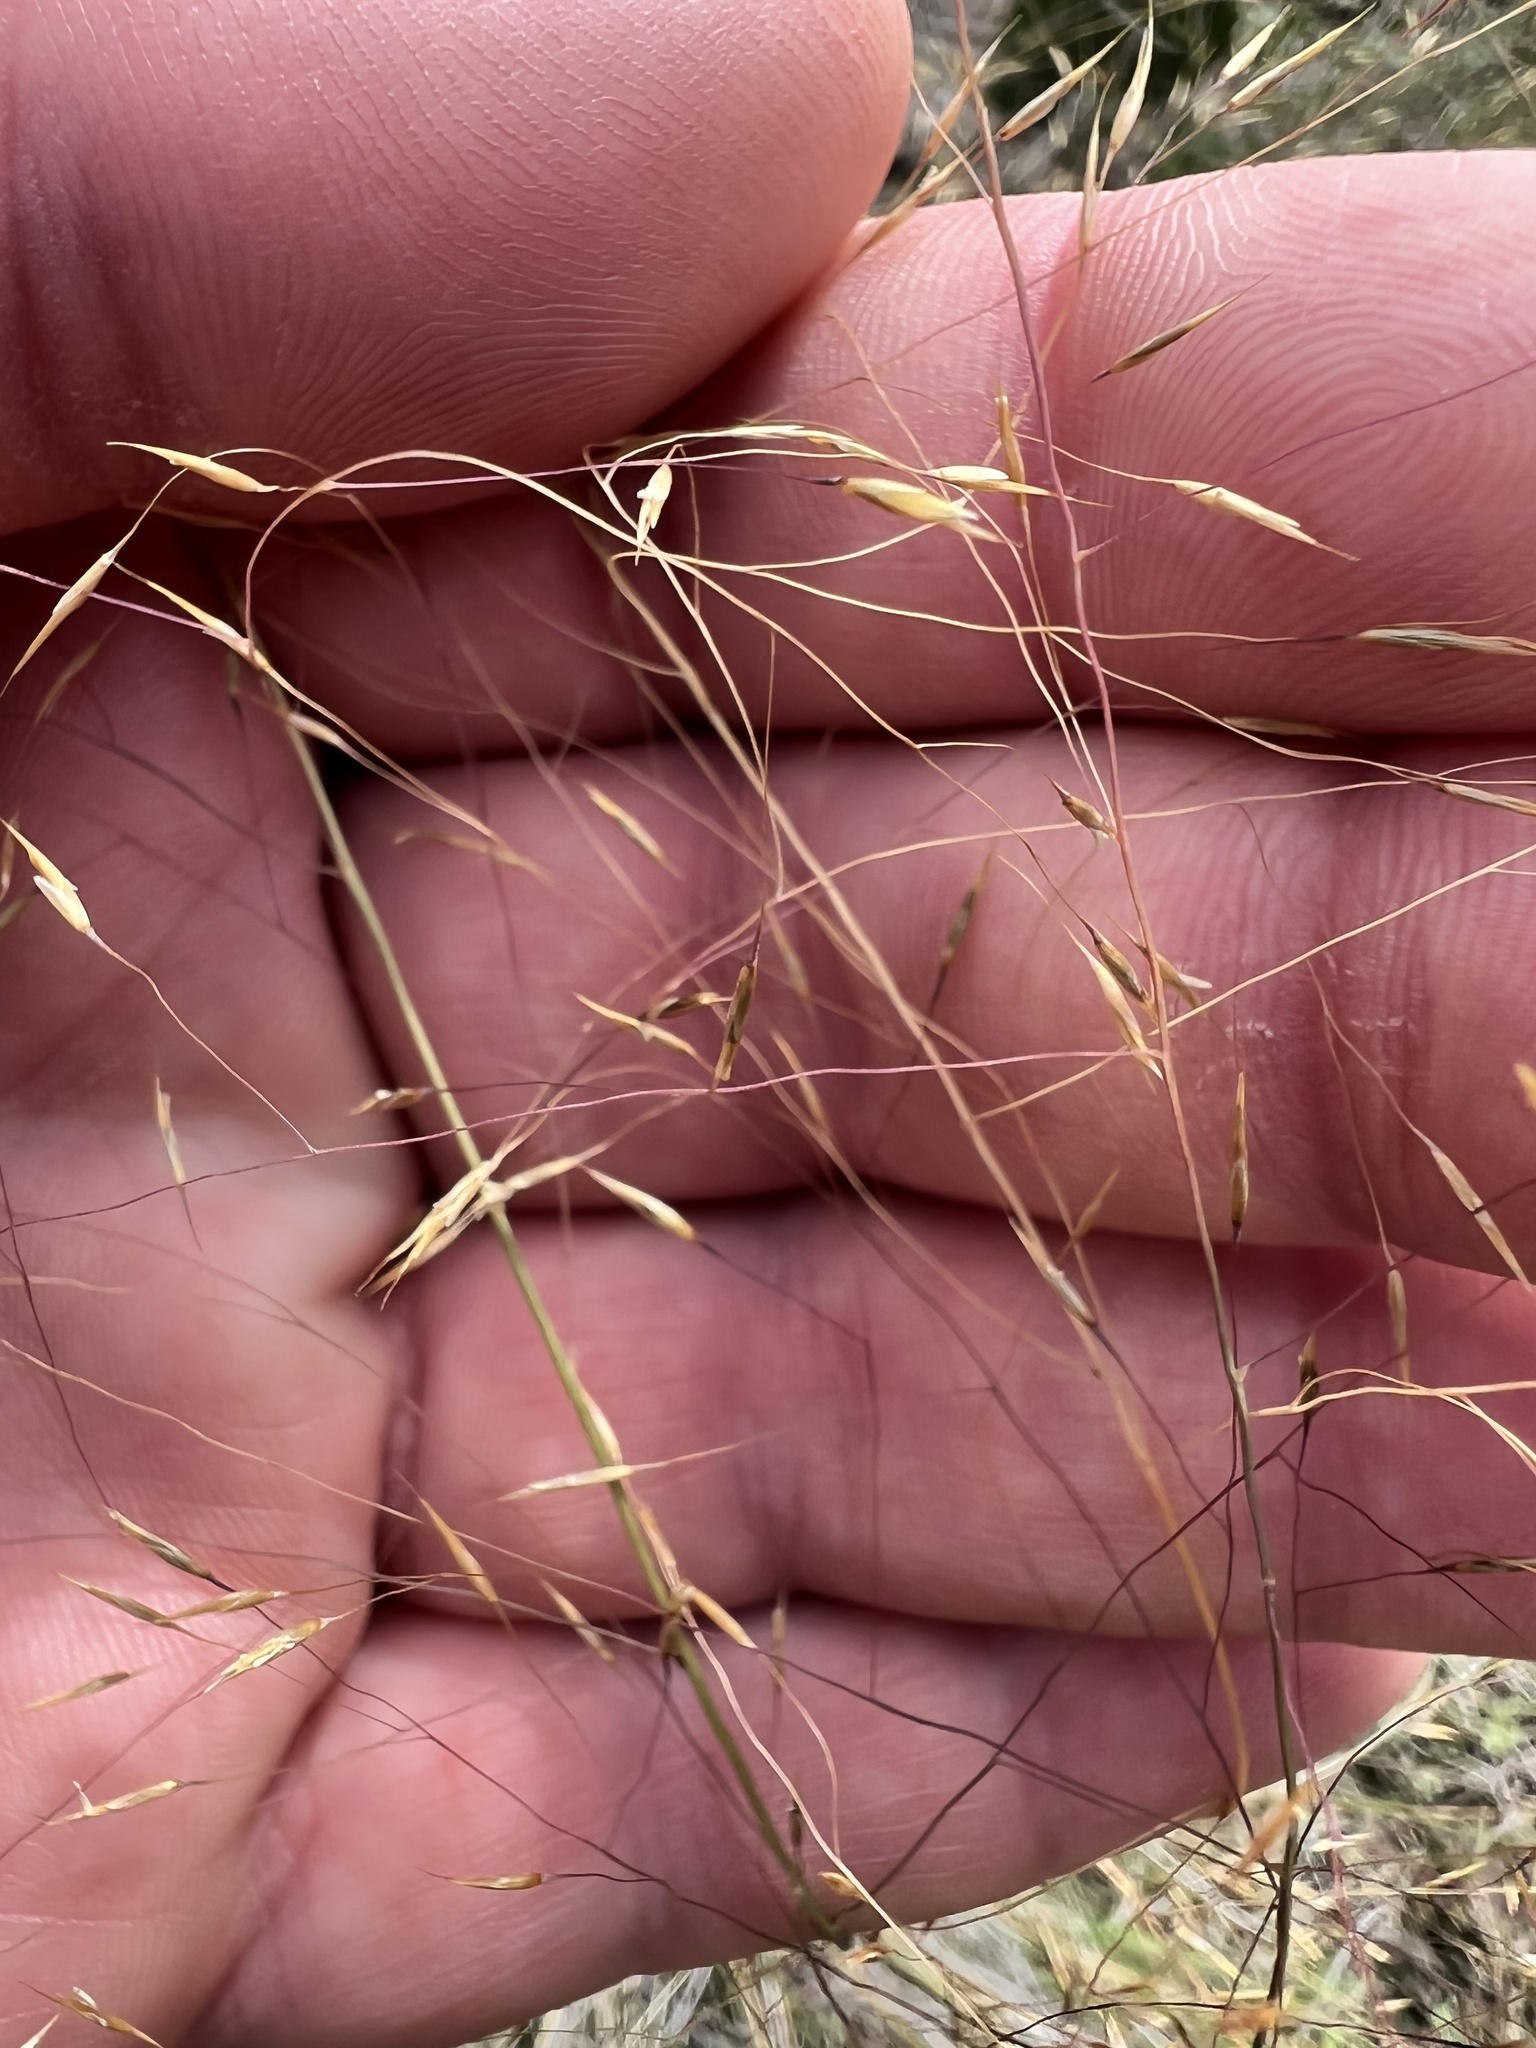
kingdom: Plantae
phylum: Tracheophyta
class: Liliopsida
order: Poales
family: Poaceae
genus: Muhlenbergia
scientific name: Muhlenbergia reverchonii
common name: Seep muhly
